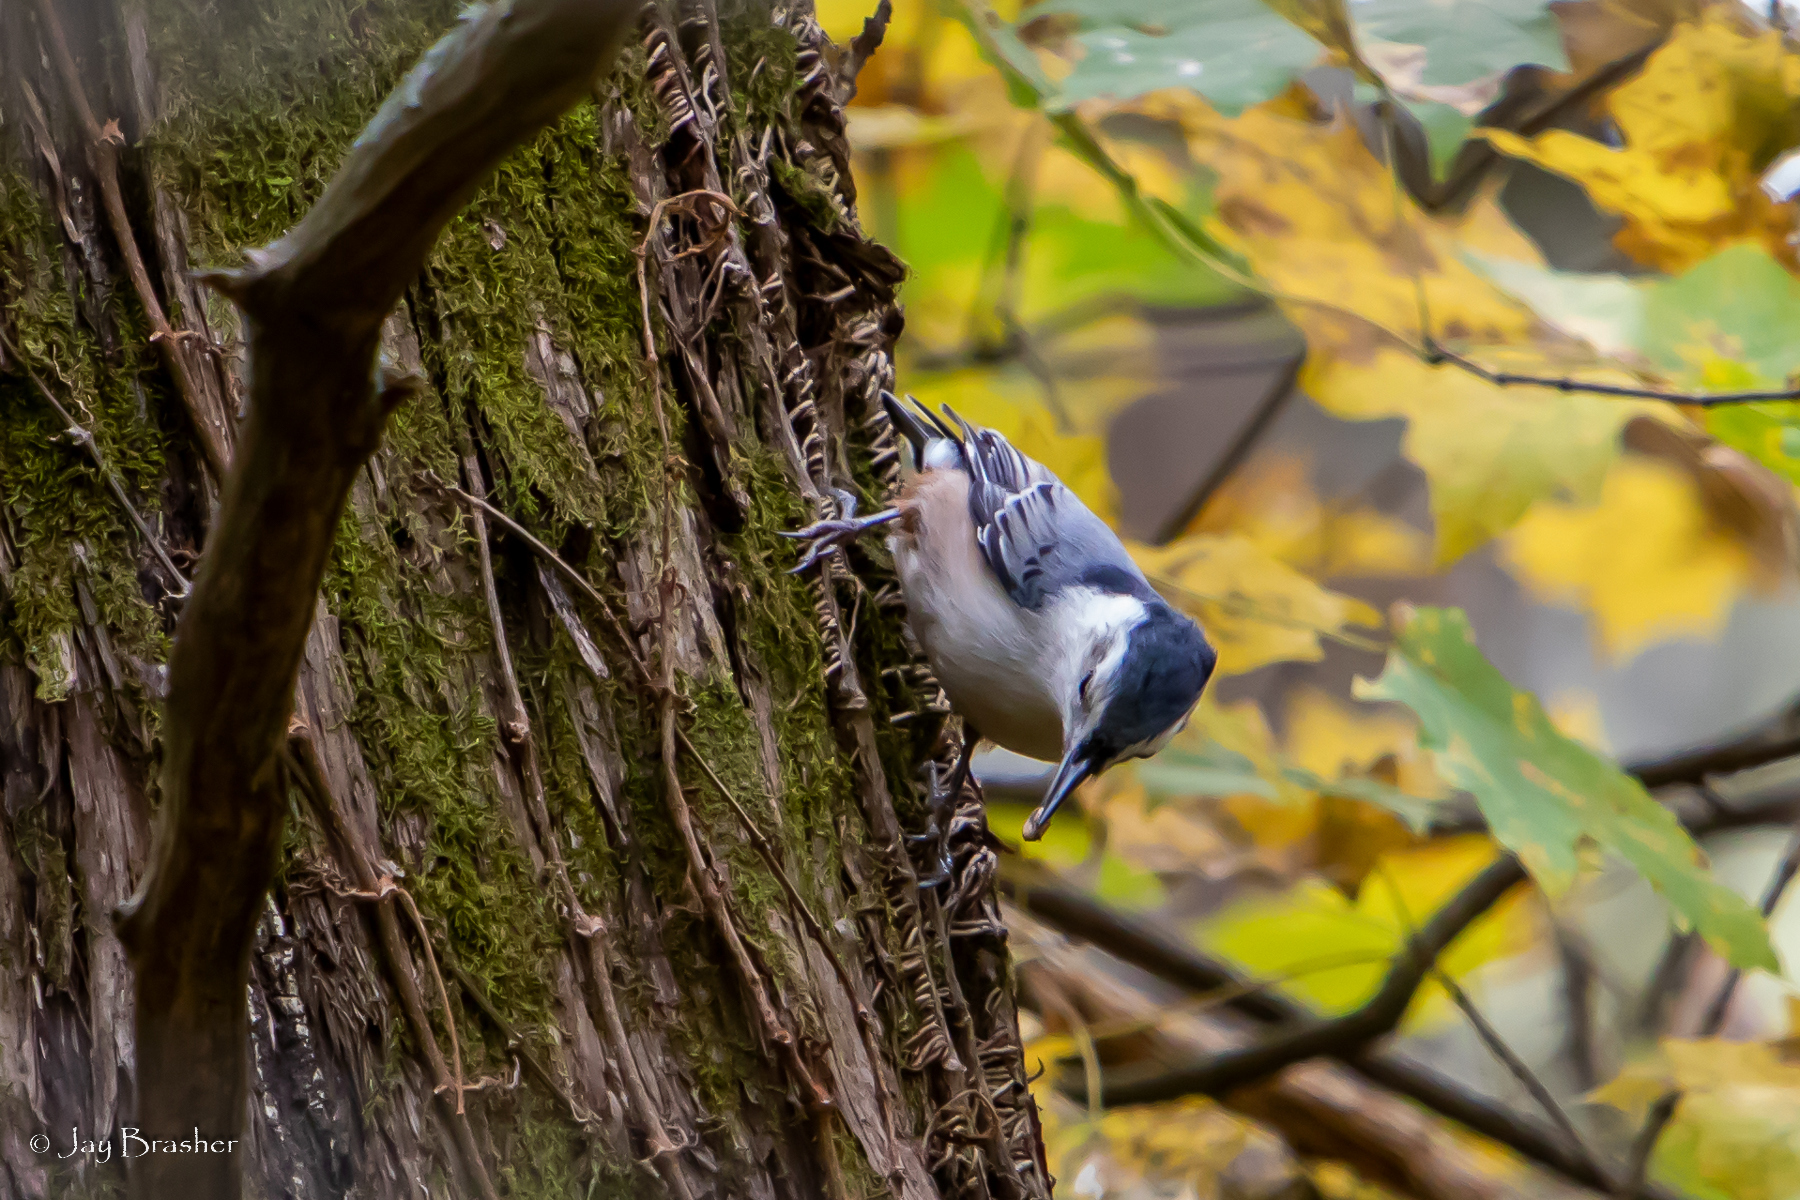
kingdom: Animalia
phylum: Chordata
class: Aves
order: Passeriformes
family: Sittidae
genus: Sitta
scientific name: Sitta carolinensis
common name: White-breasted nuthatch
